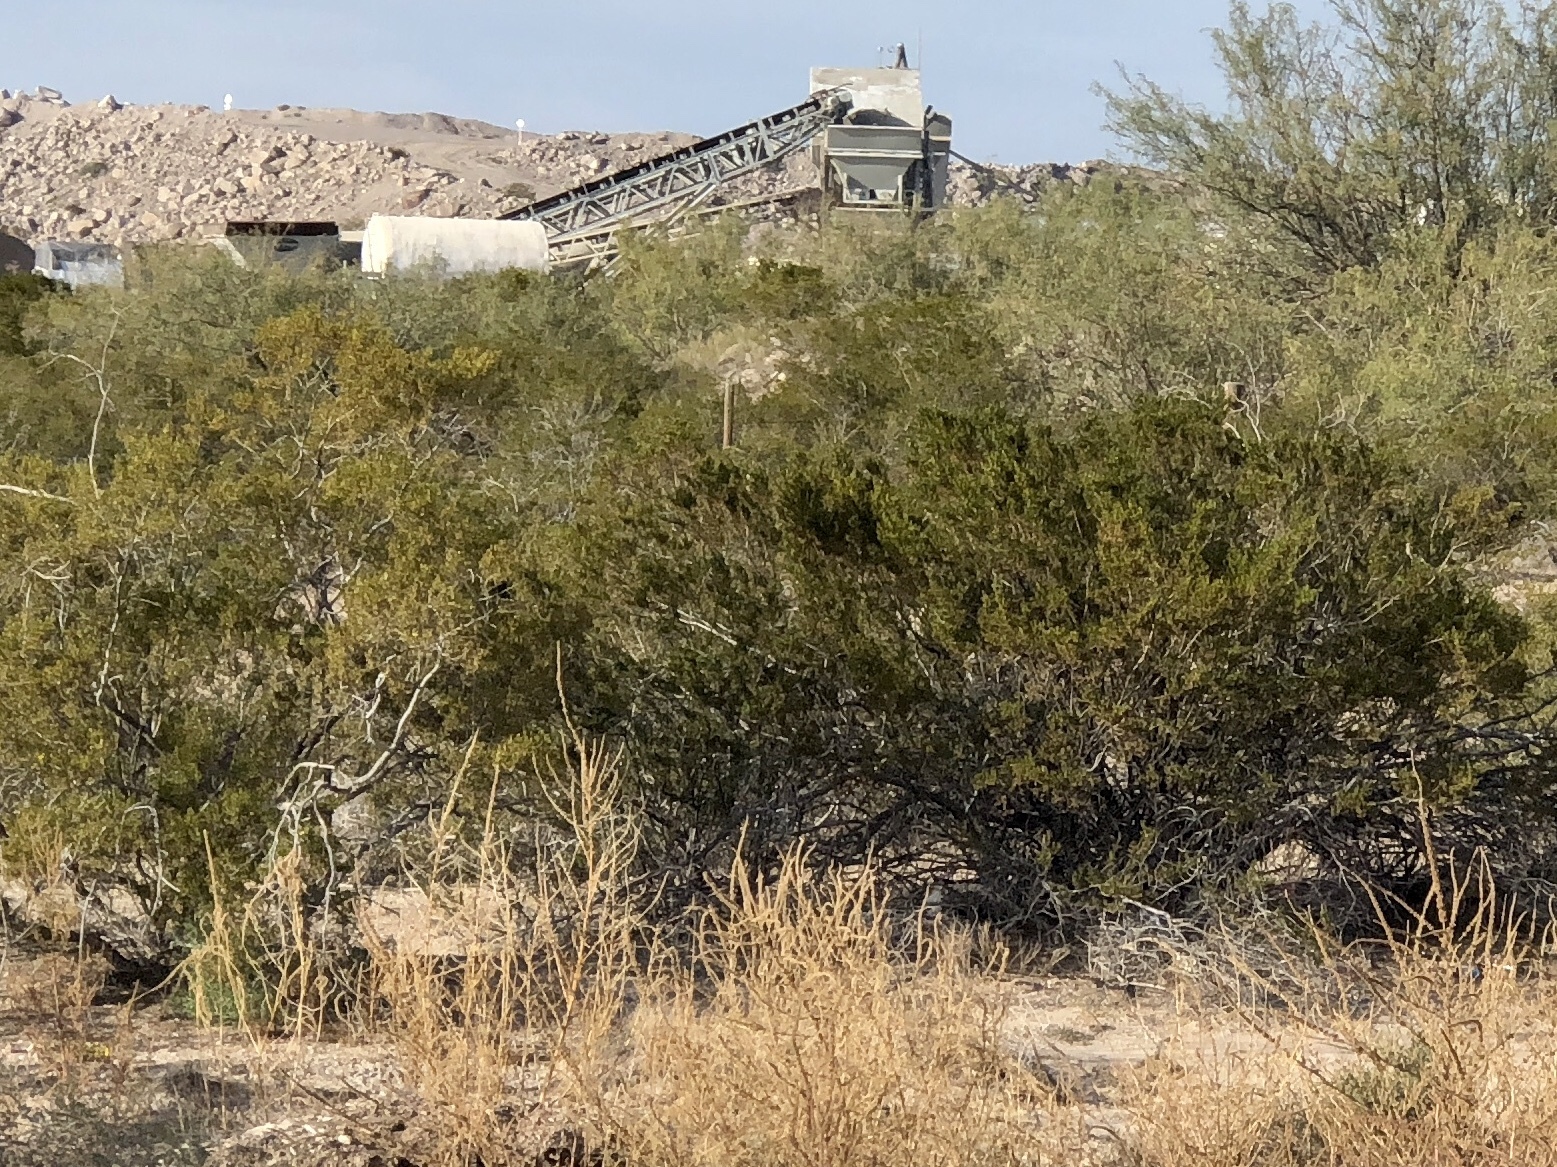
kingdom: Plantae
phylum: Tracheophyta
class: Magnoliopsida
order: Zygophyllales
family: Zygophyllaceae
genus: Larrea
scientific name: Larrea tridentata
